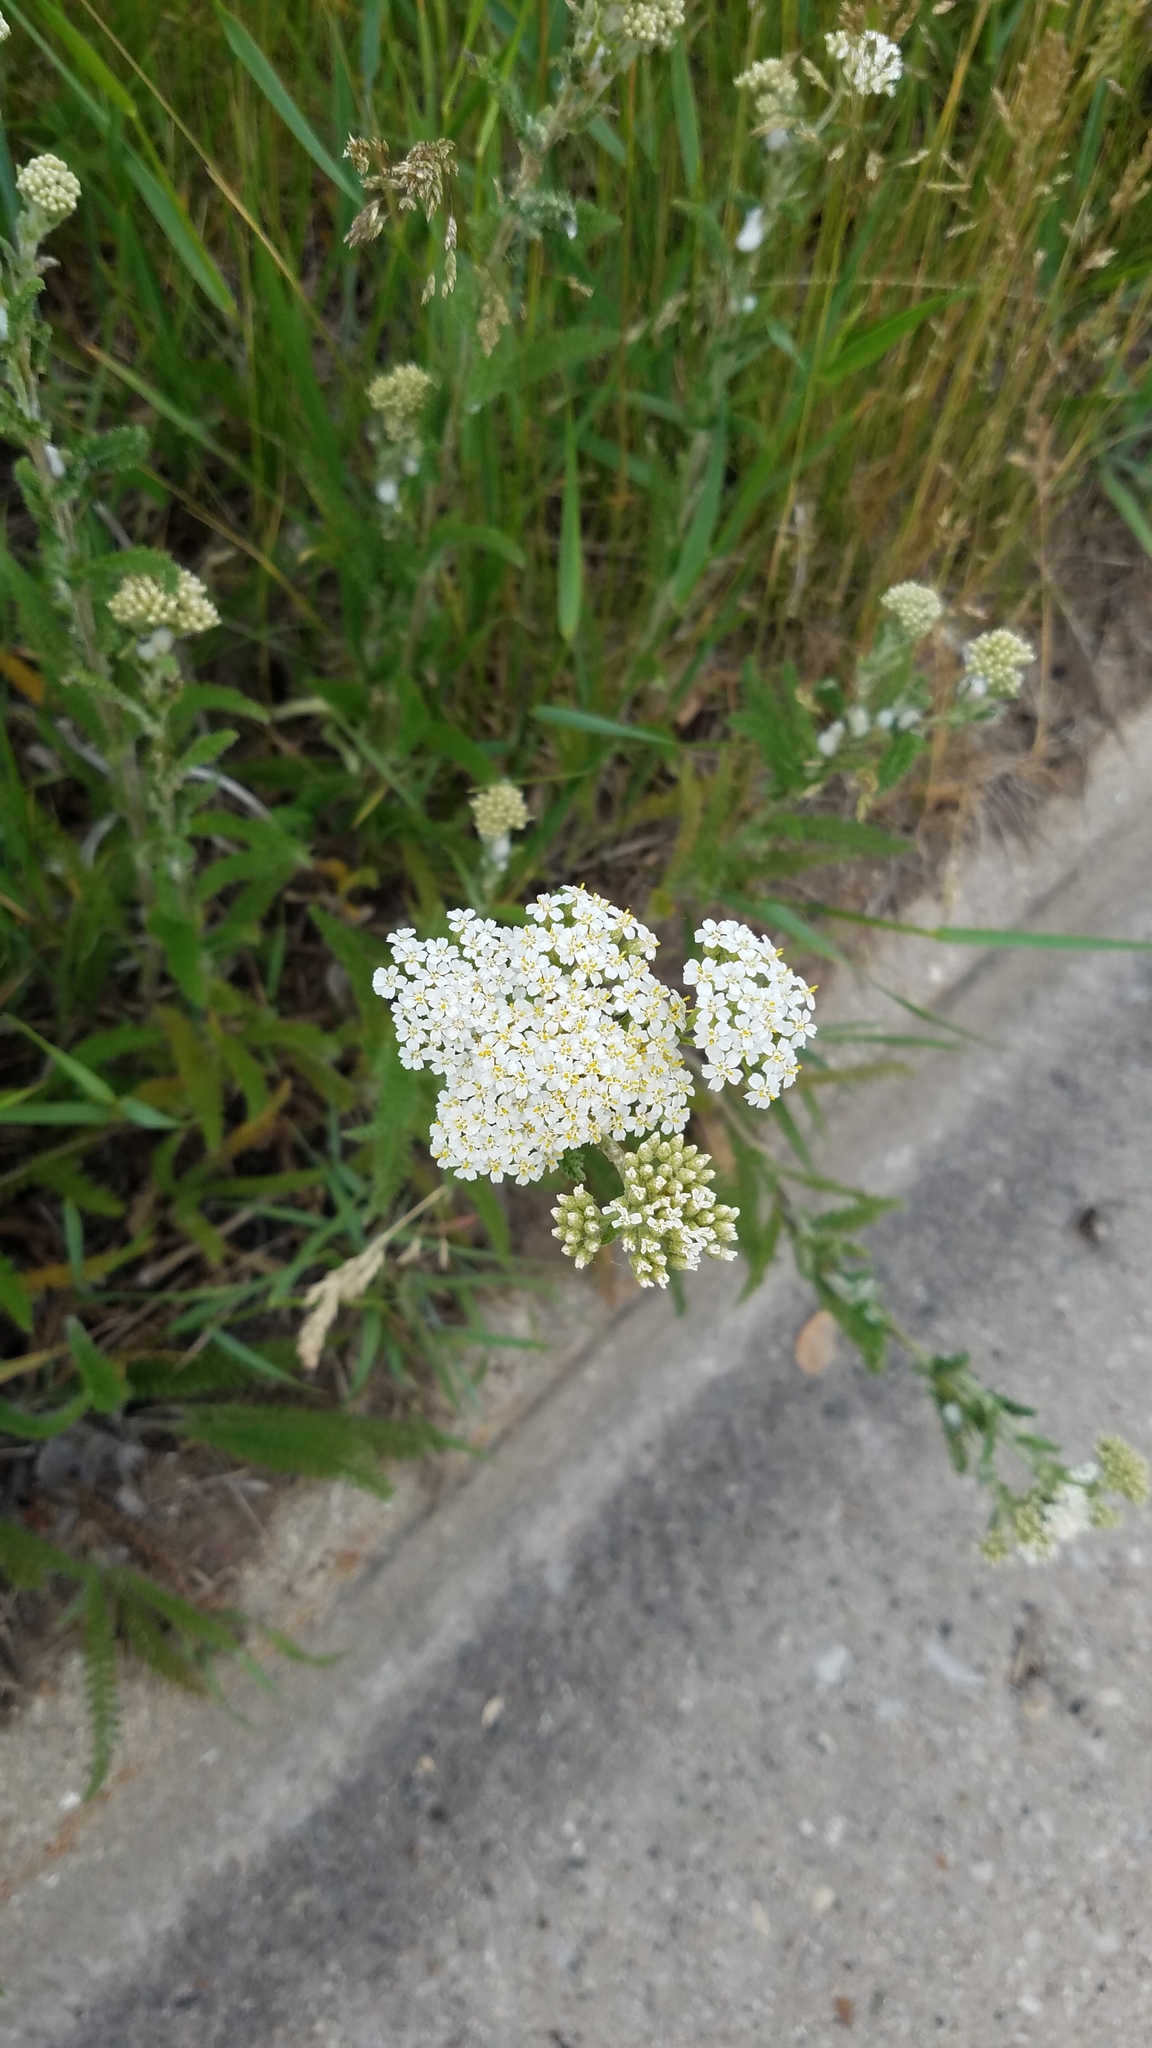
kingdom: Plantae
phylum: Tracheophyta
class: Magnoliopsida
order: Asterales
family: Asteraceae
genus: Achillea
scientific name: Achillea millefolium
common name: Yarrow
